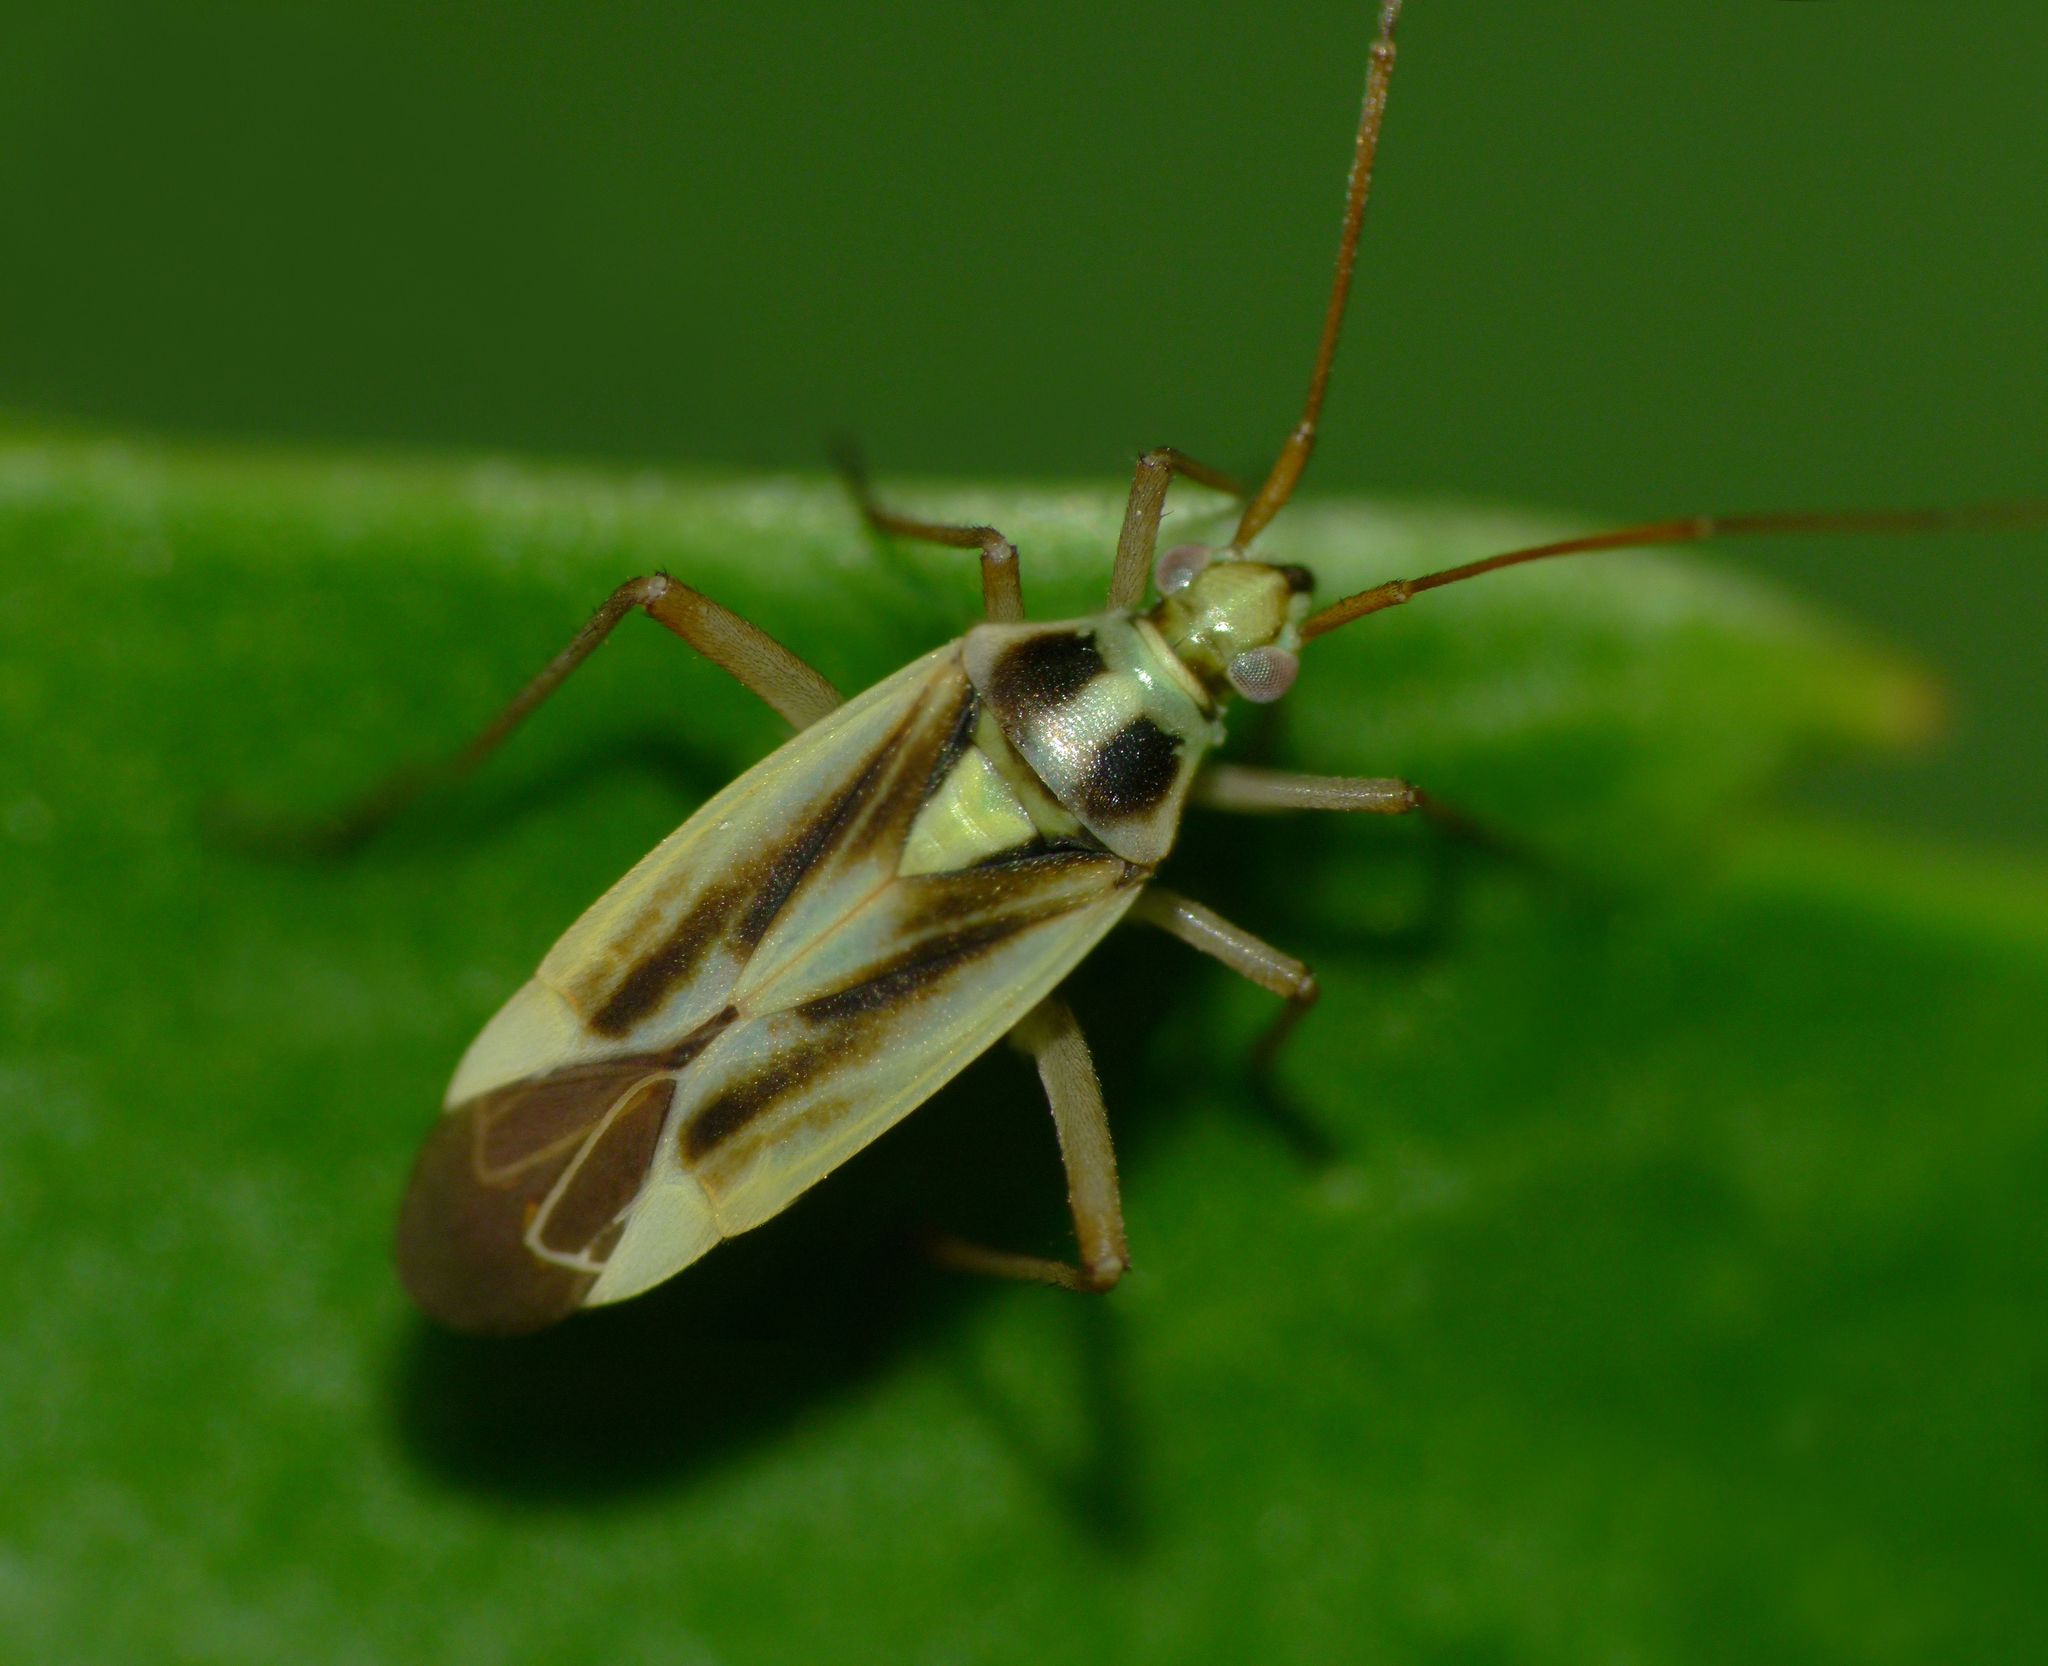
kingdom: Animalia
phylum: Arthropoda
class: Insecta
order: Hemiptera
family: Miridae
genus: Stenotus
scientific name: Stenotus binotatus
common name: Plant bug
